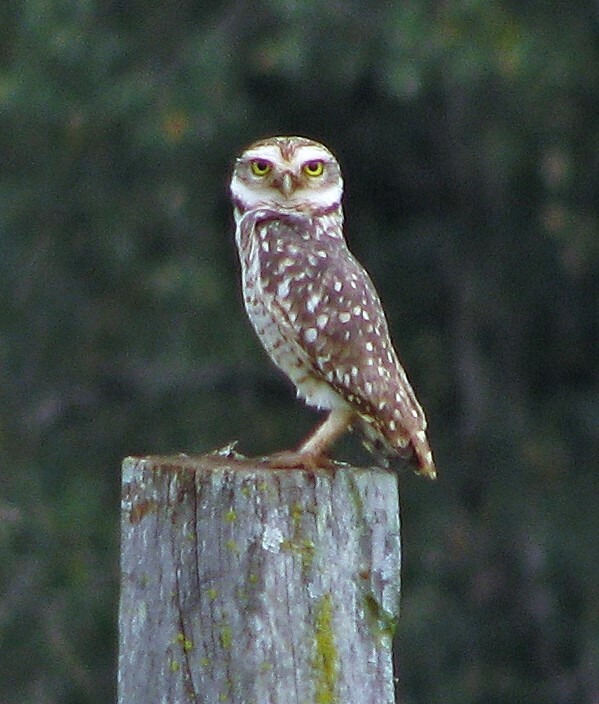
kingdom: Animalia
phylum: Chordata
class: Aves
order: Strigiformes
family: Strigidae
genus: Athene
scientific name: Athene cunicularia
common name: Burrowing owl
